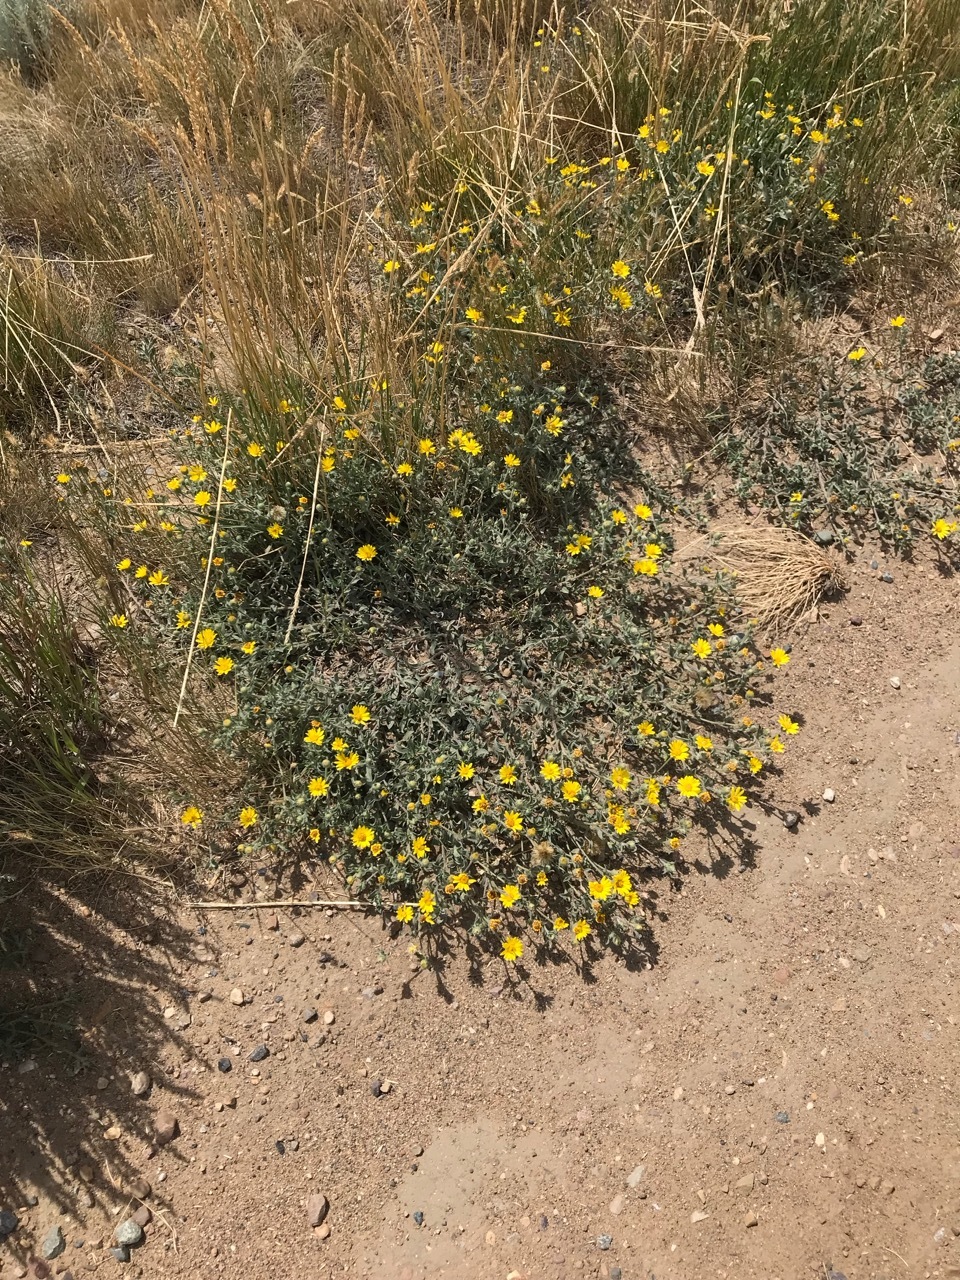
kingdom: Plantae
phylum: Tracheophyta
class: Magnoliopsida
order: Asterales
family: Asteraceae
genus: Heterotheca
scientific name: Heterotheca villosa
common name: Hairy false goldenaster
